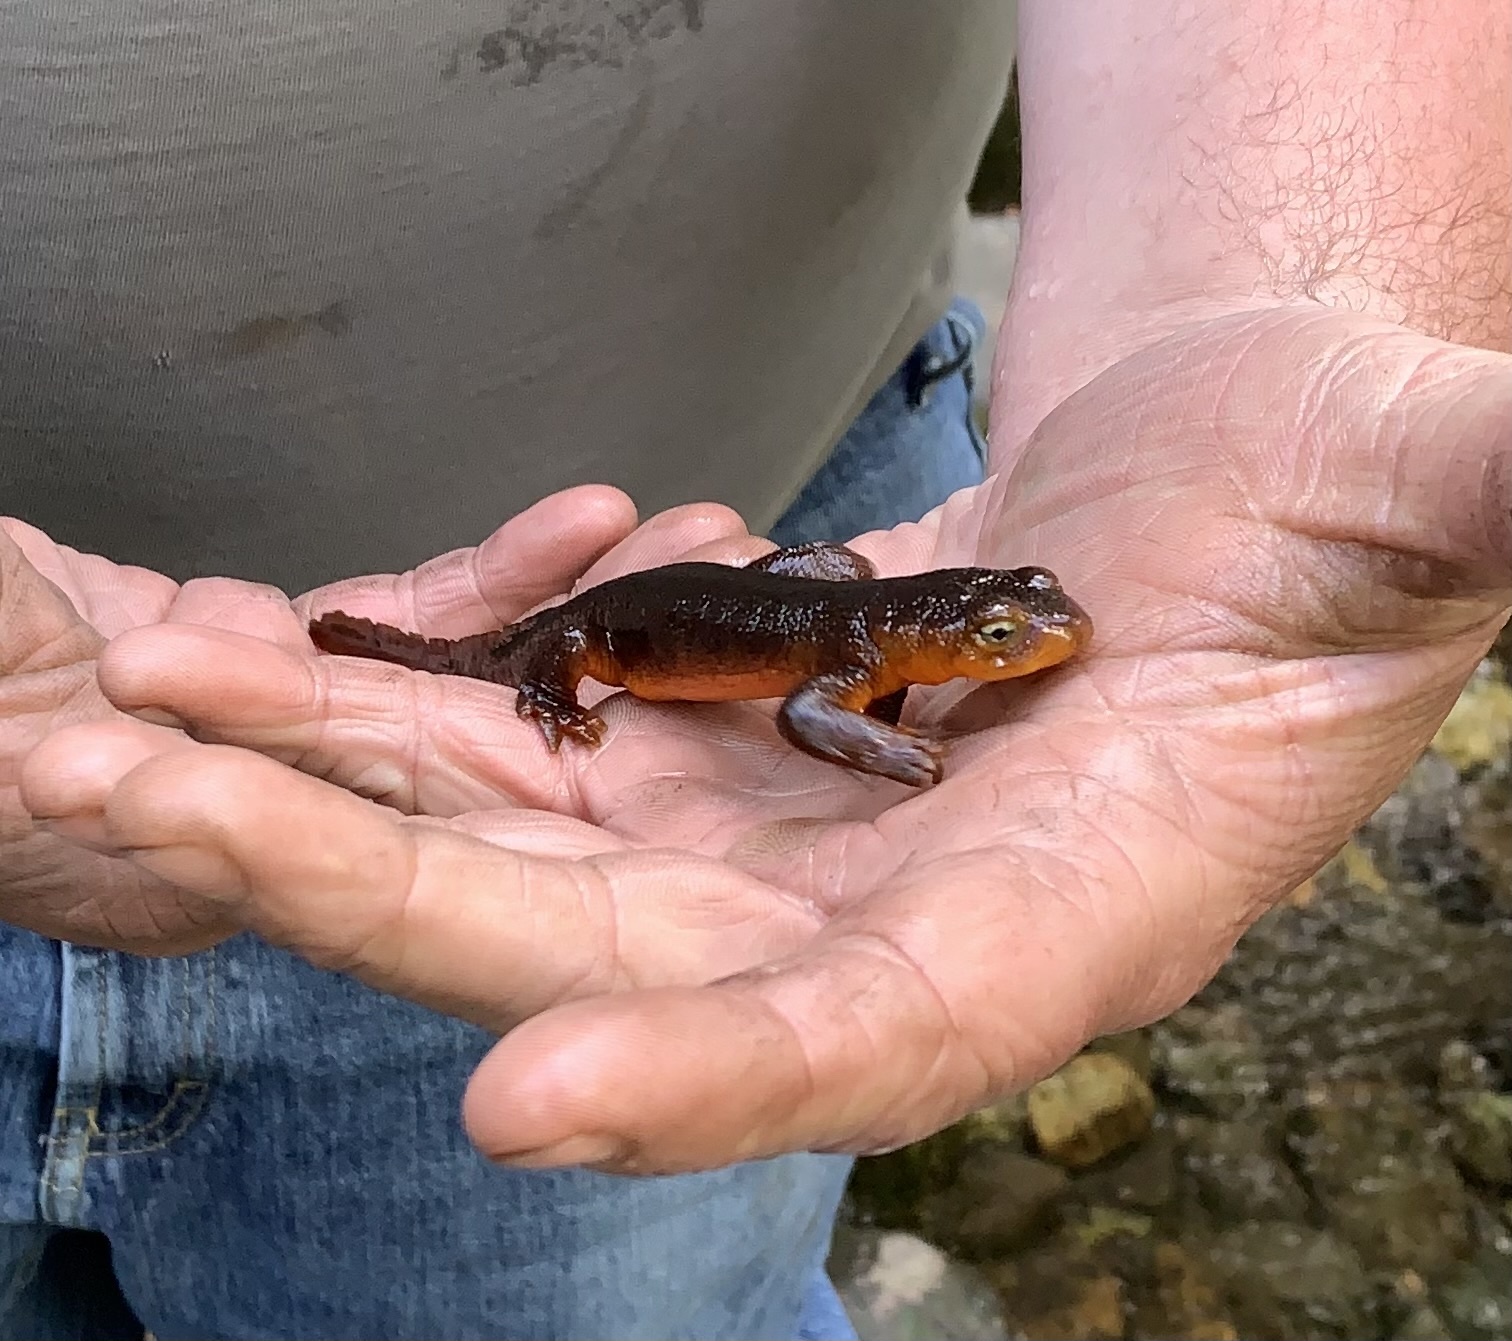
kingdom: Animalia
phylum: Chordata
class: Amphibia
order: Caudata
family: Salamandridae
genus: Taricha
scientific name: Taricha sierrae
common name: Sierra newt
